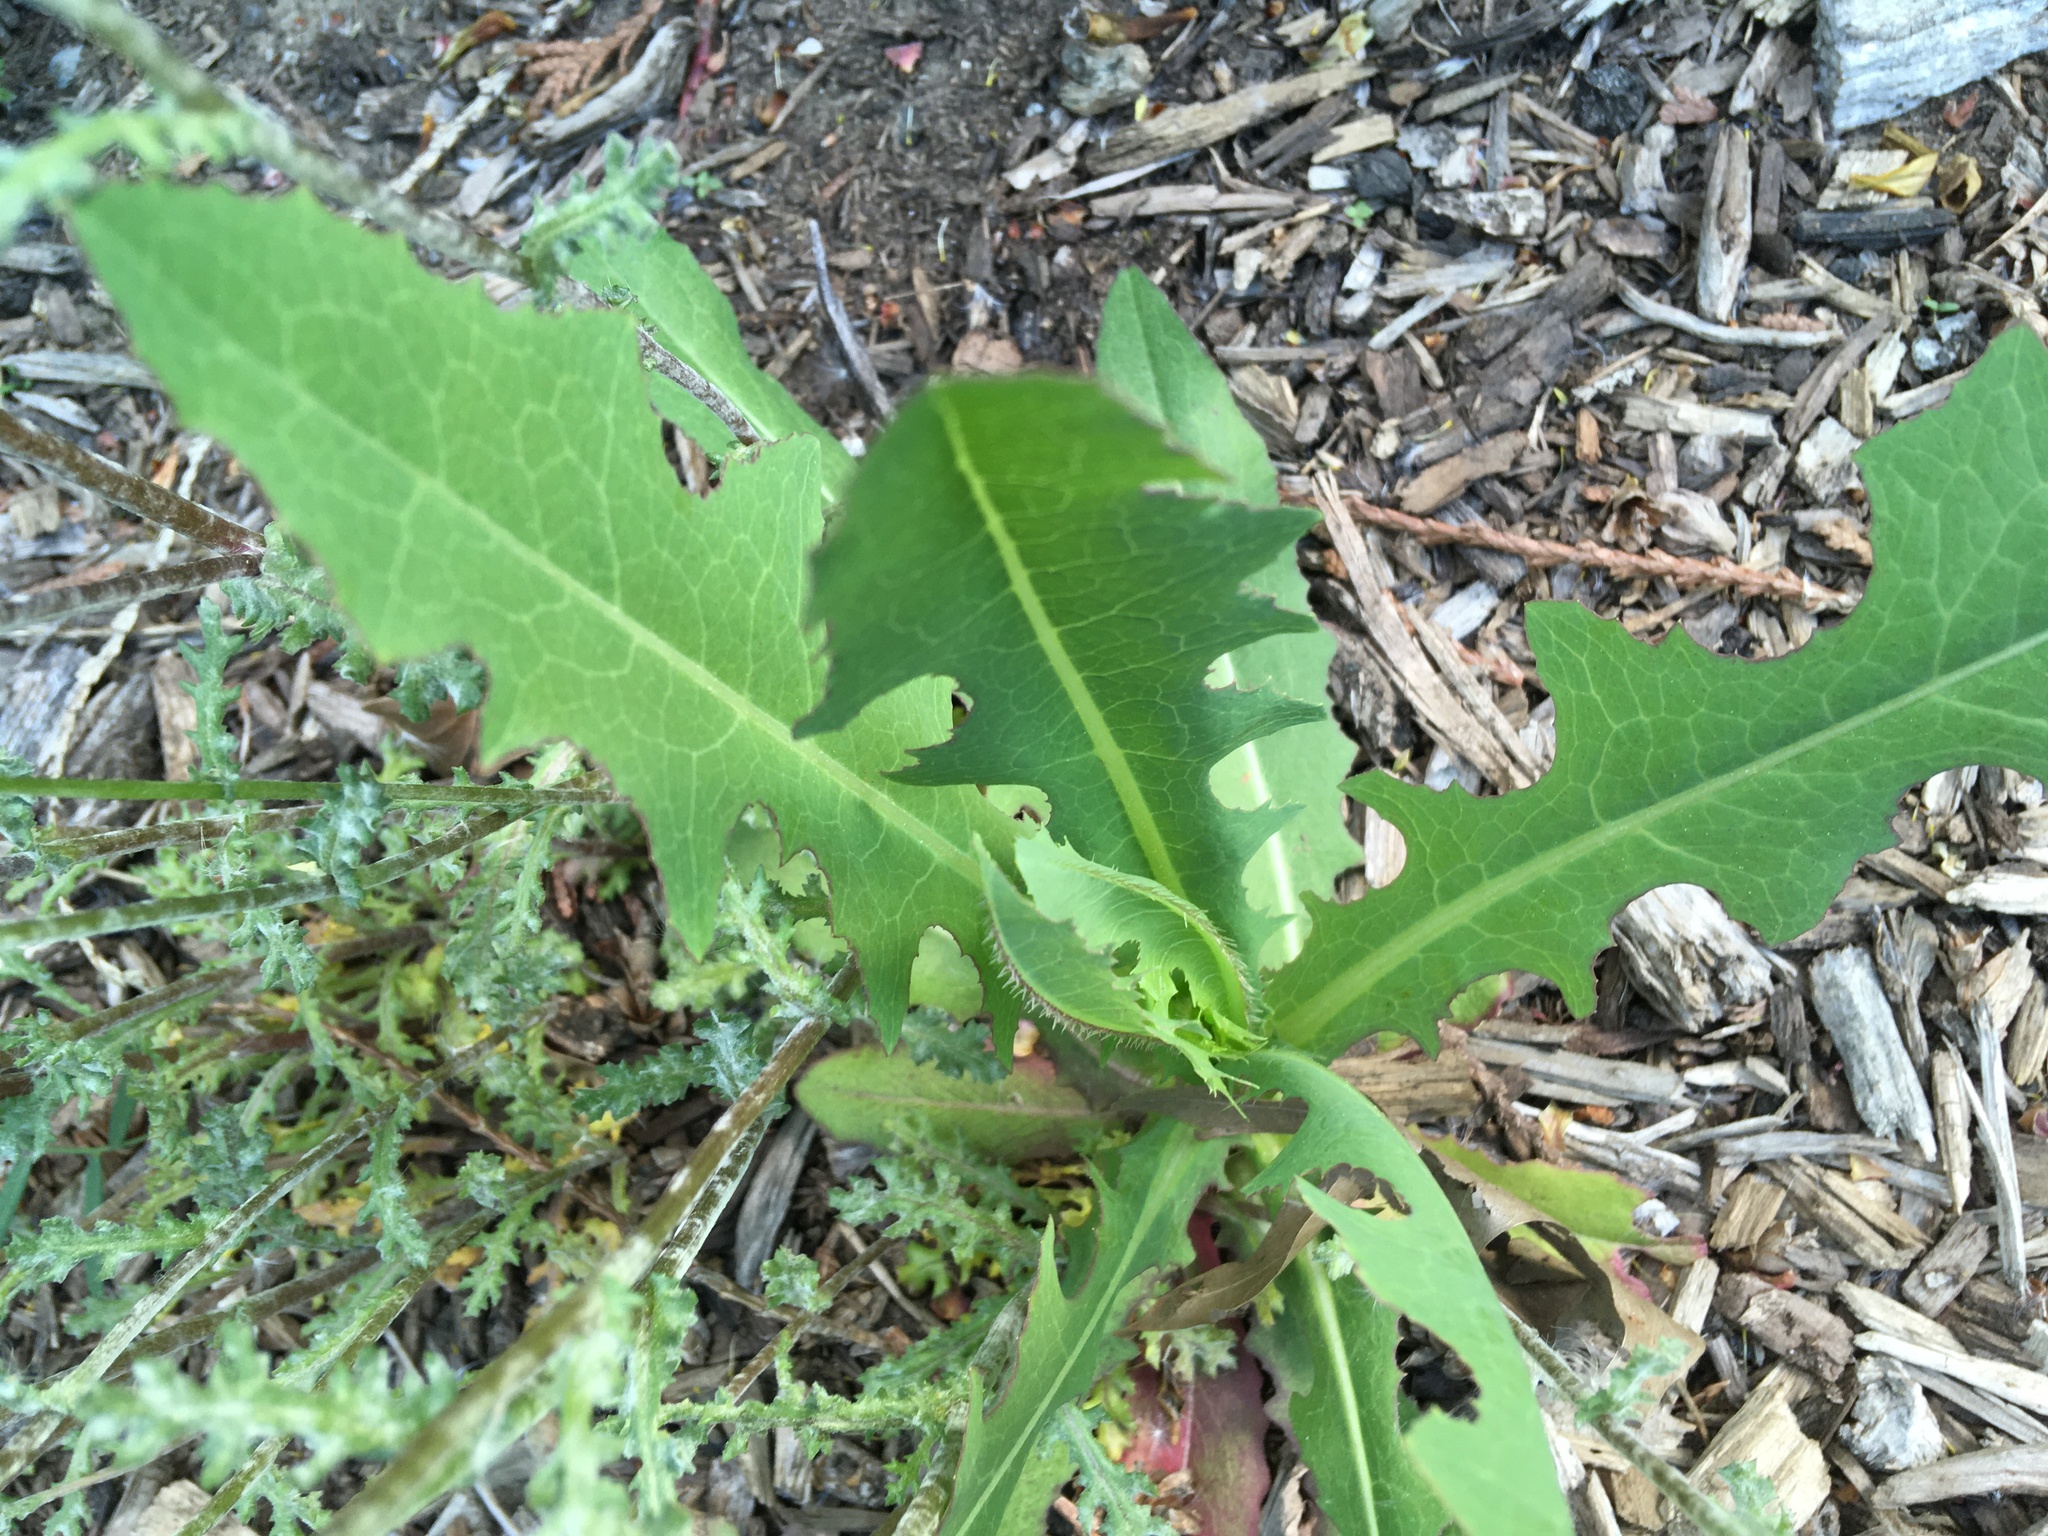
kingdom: Plantae
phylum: Tracheophyta
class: Magnoliopsida
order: Asterales
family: Asteraceae
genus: Lactuca
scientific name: Lactuca serriola
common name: Prickly lettuce
